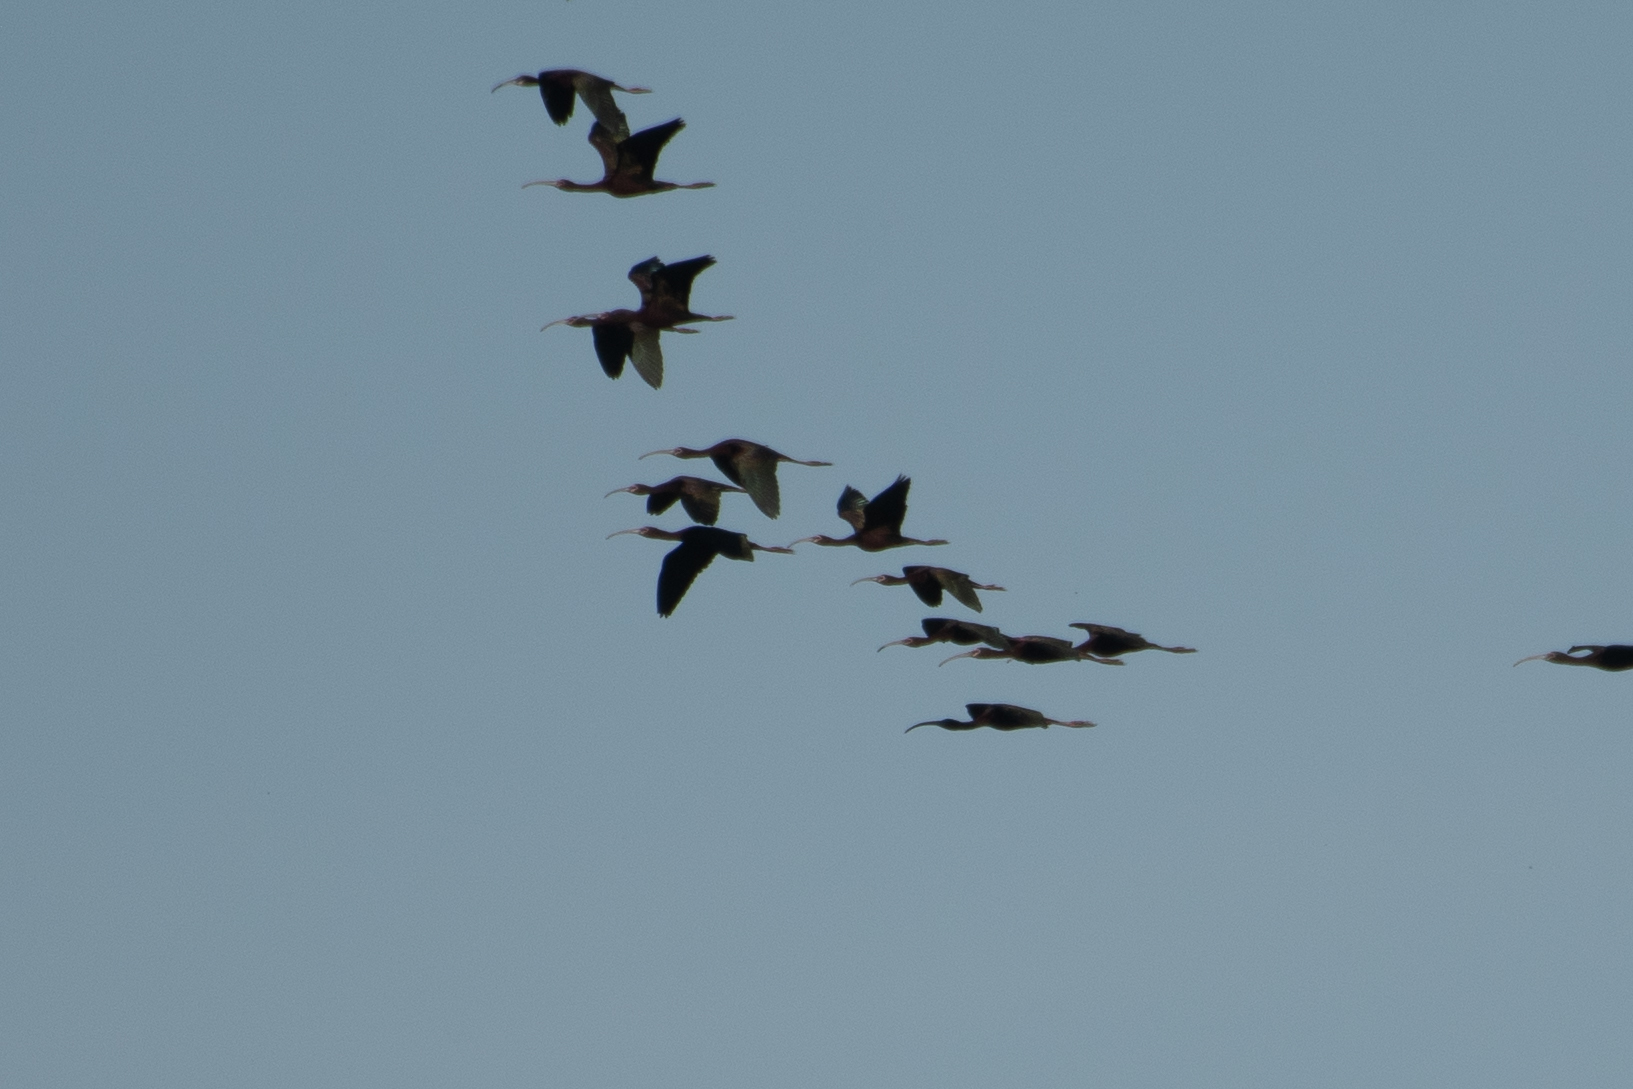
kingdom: Animalia
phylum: Chordata
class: Aves
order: Pelecaniformes
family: Threskiornithidae
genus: Plegadis
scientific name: Plegadis chihi
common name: White-faced ibis
